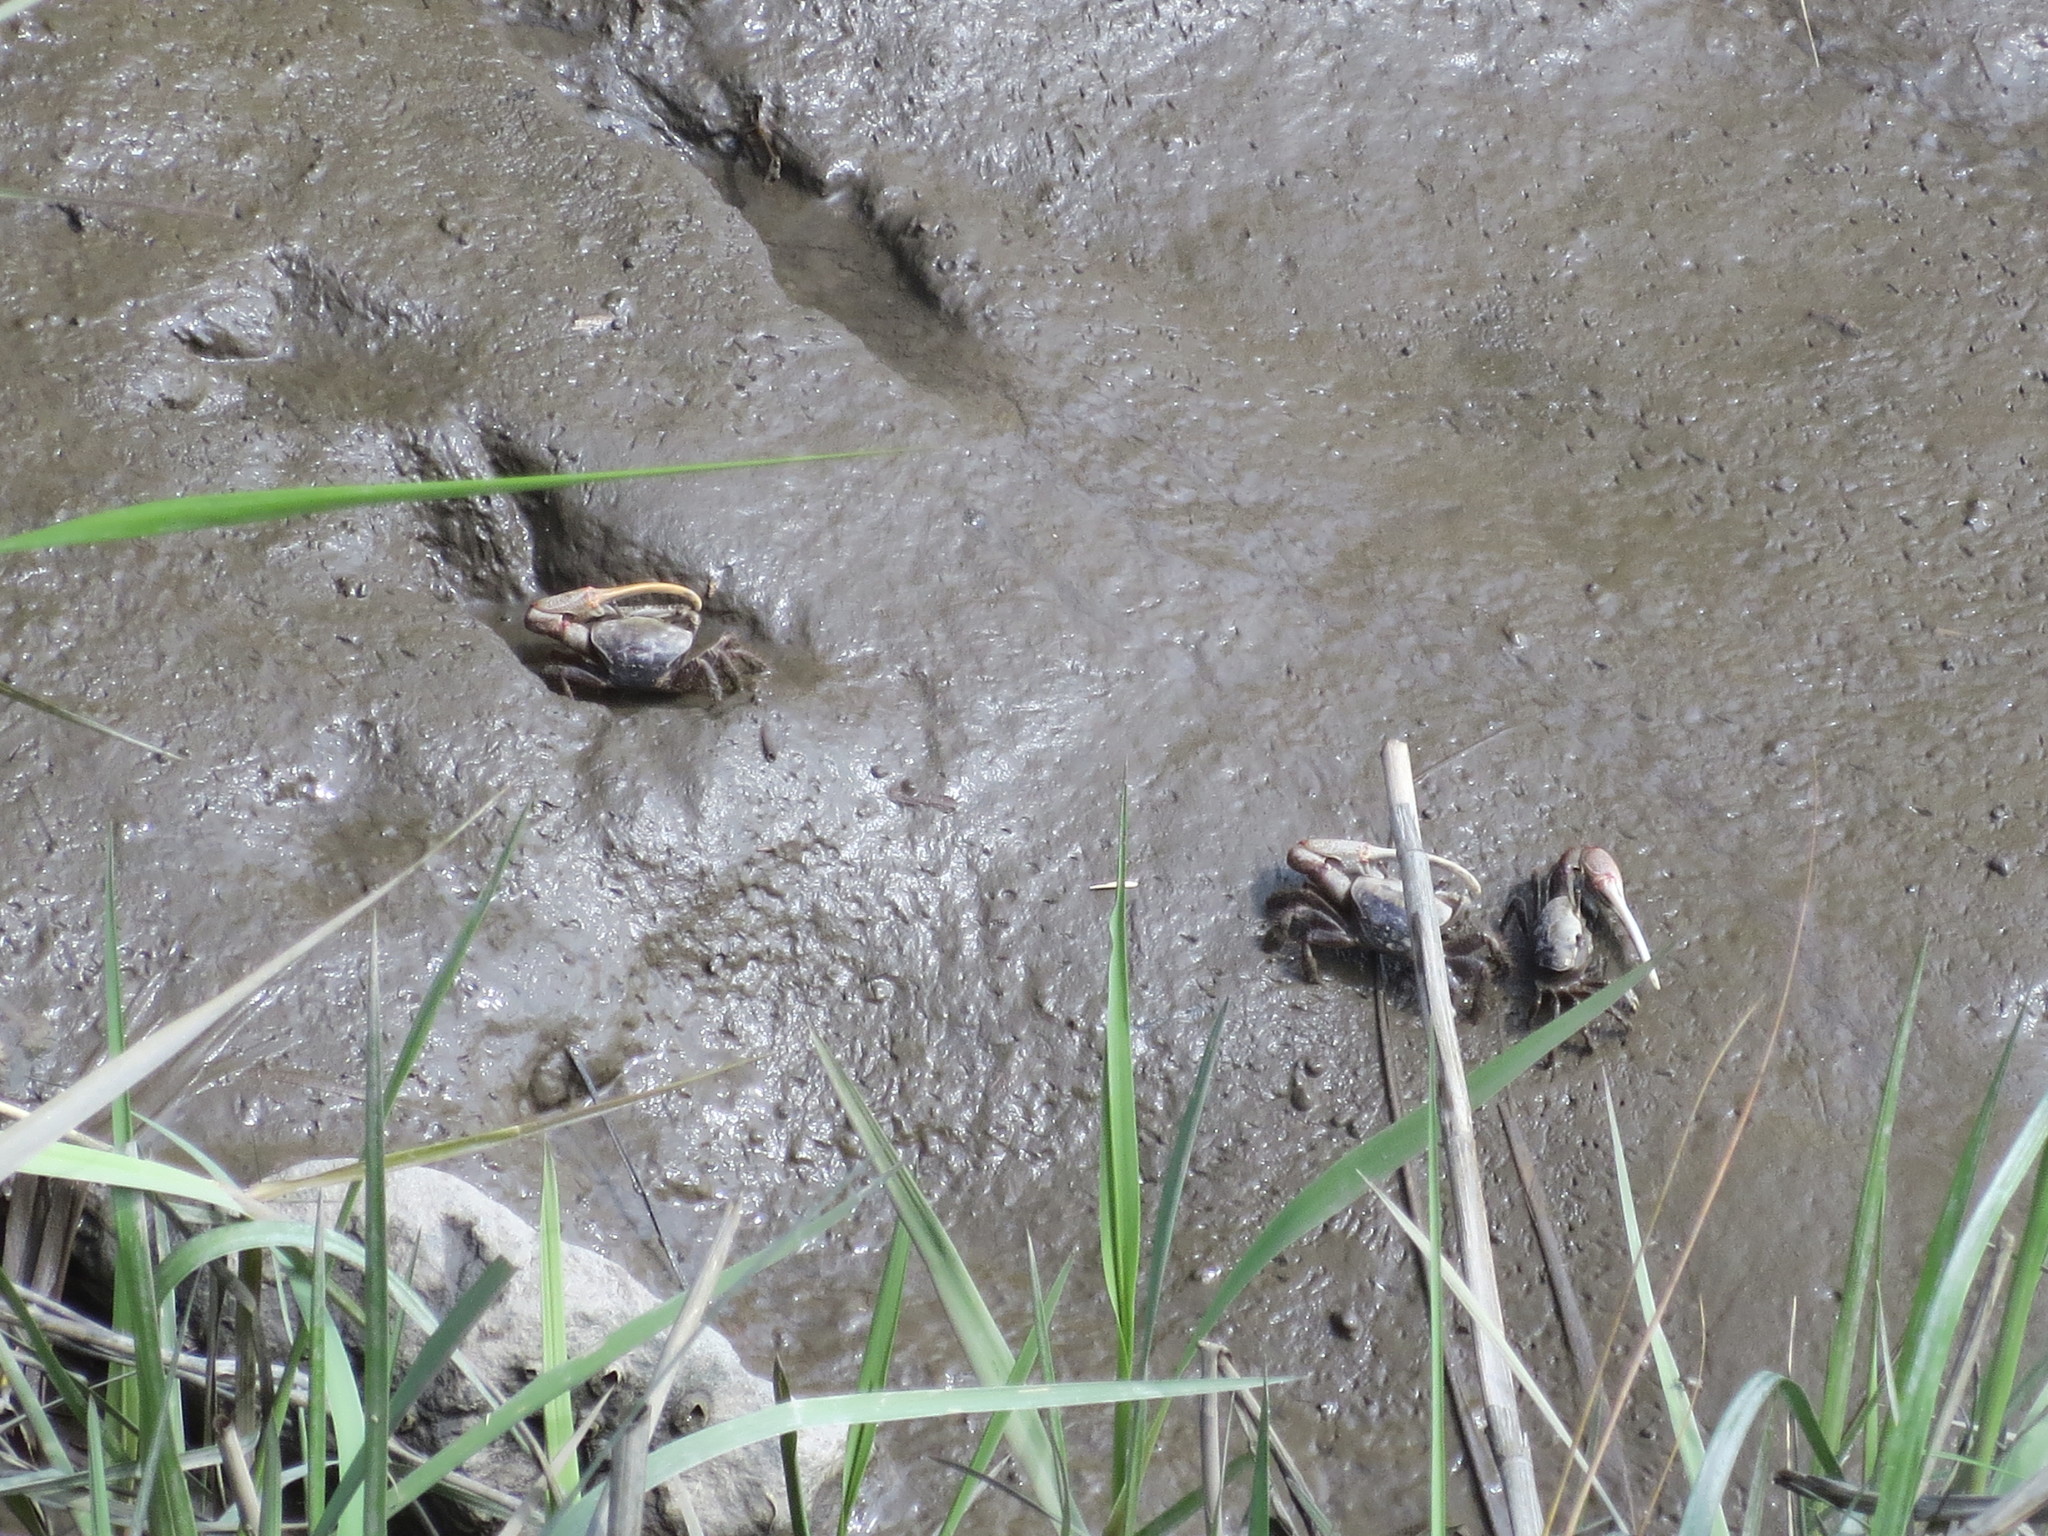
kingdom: Animalia
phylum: Arthropoda
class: Malacostraca
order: Decapoda
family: Ocypodidae
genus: Minuca
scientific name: Minuca minax
